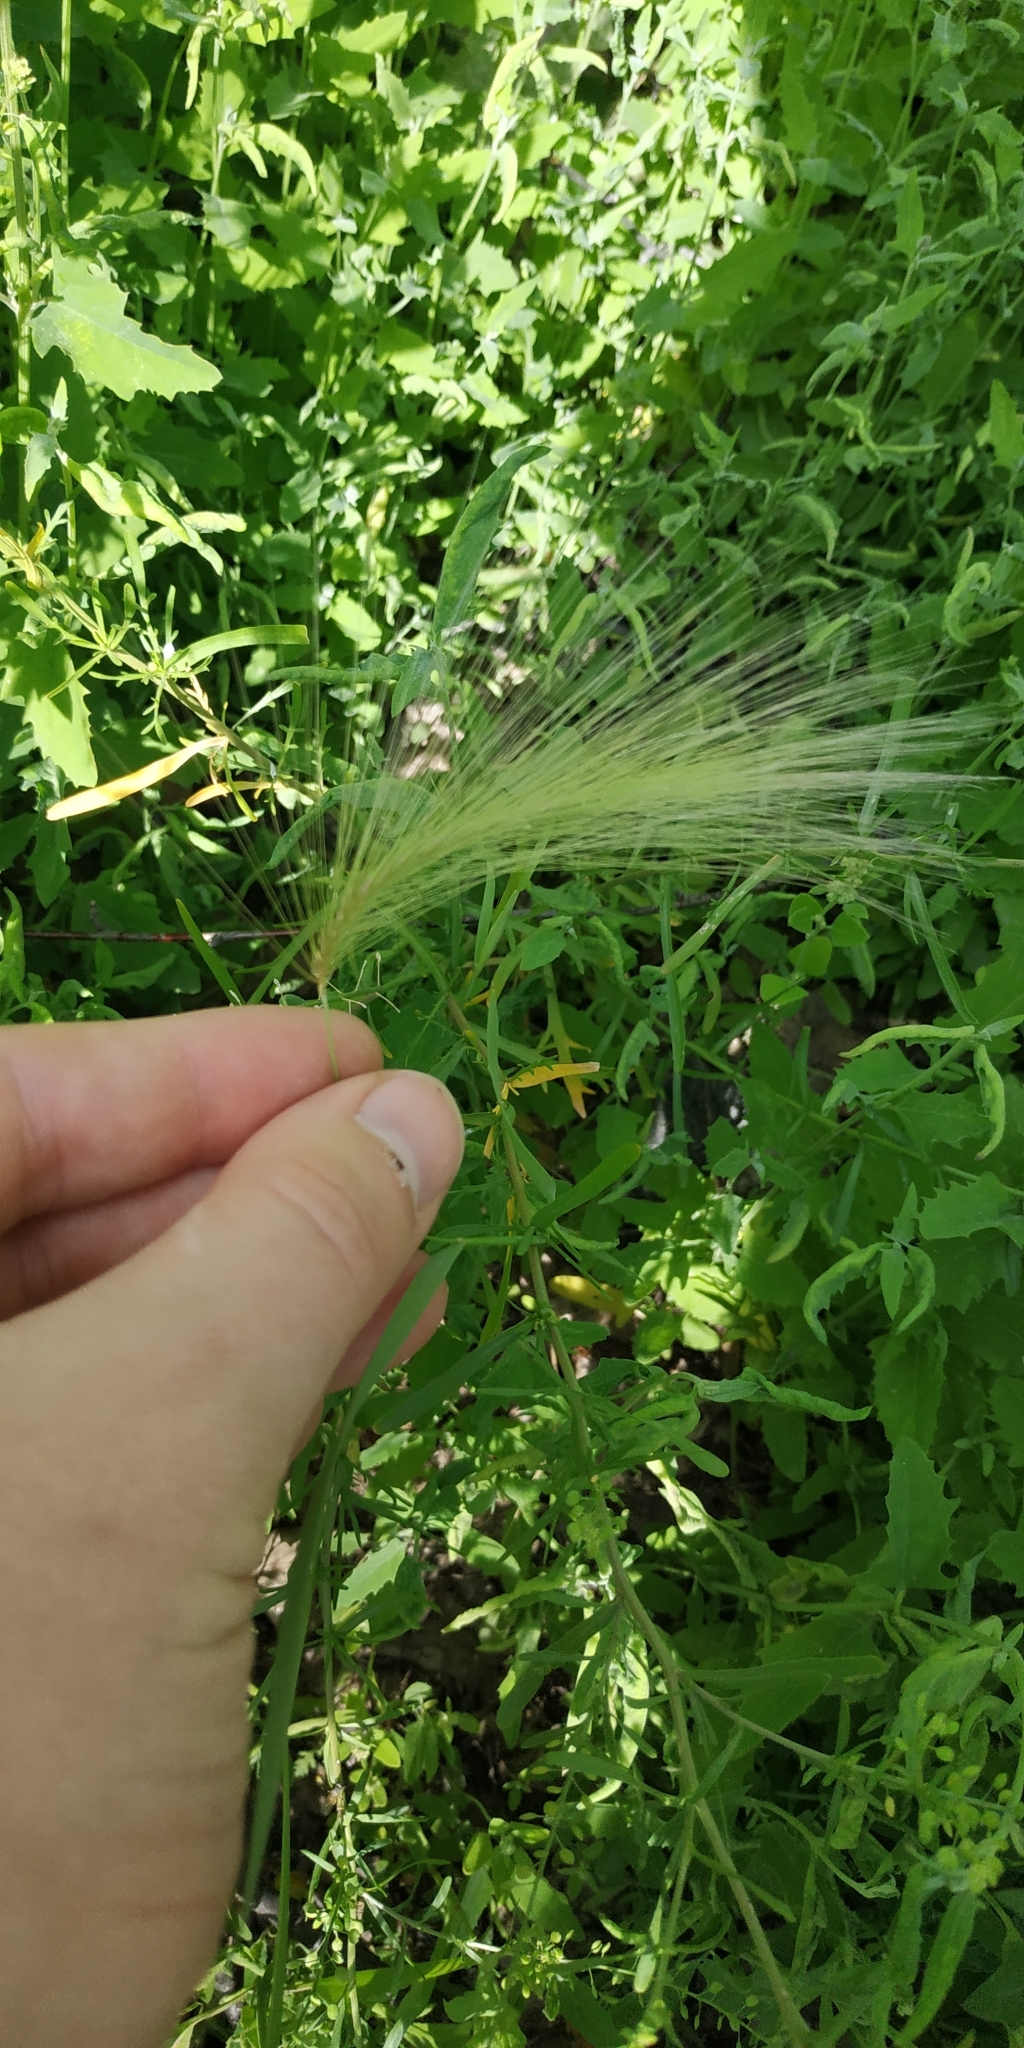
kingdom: Plantae
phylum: Tracheophyta
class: Liliopsida
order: Poales
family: Poaceae
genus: Hordeum
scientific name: Hordeum jubatum
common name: Foxtail barley
